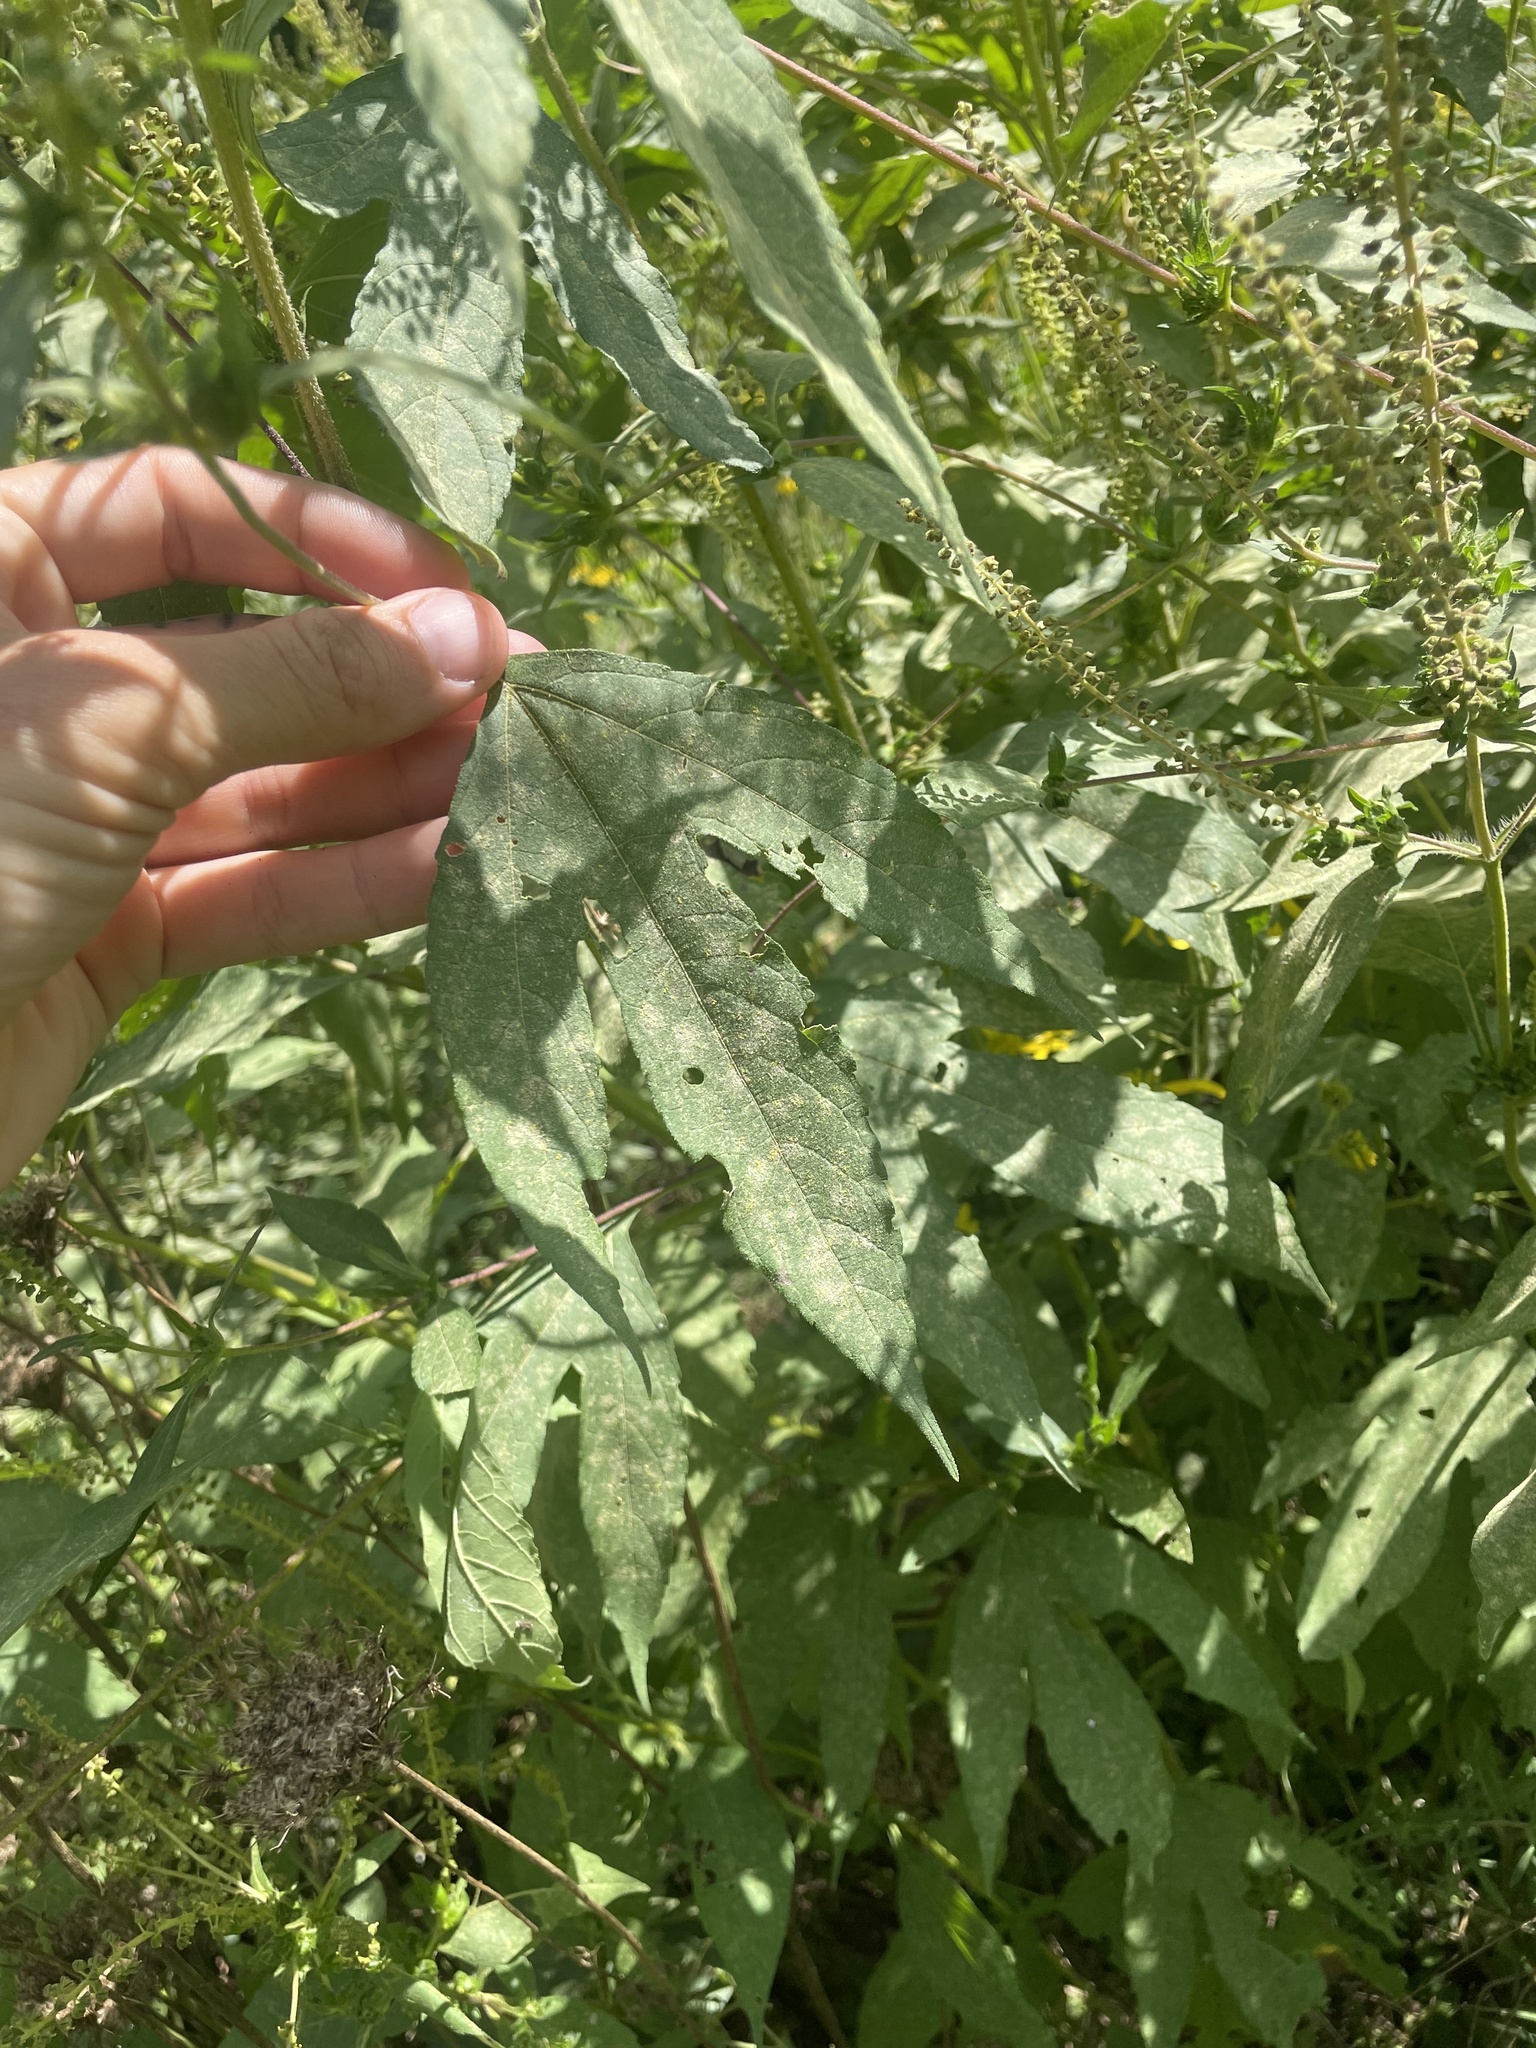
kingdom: Plantae
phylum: Tracheophyta
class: Magnoliopsida
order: Asterales
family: Asteraceae
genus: Ambrosia
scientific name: Ambrosia trifida
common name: Giant ragweed
